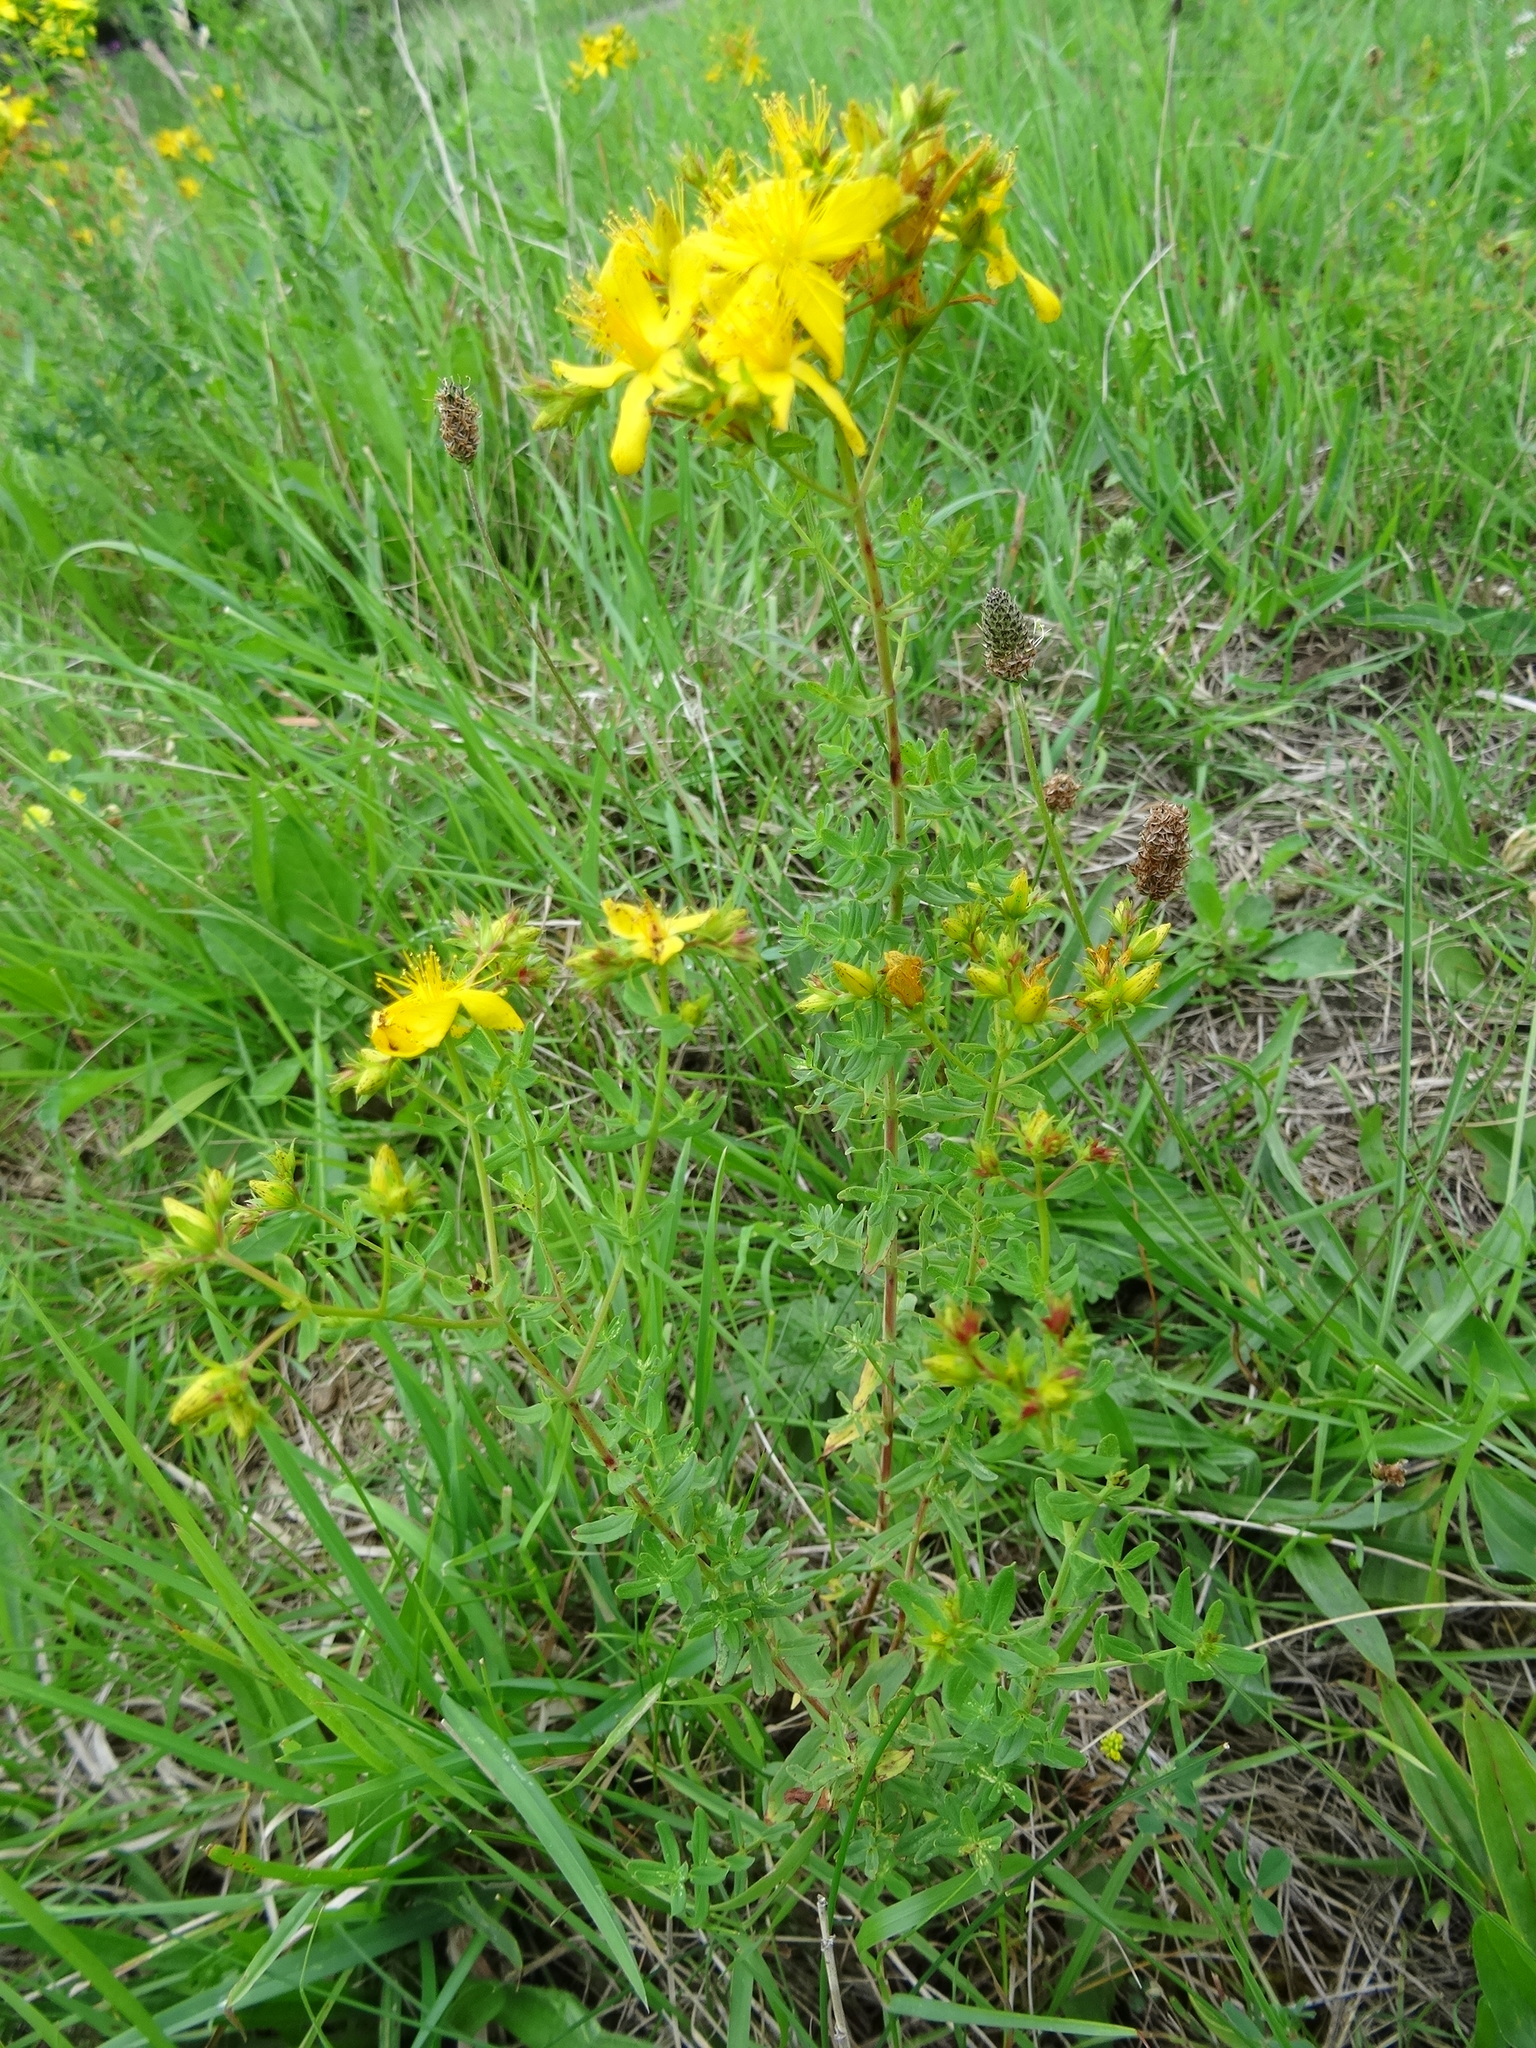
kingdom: Plantae
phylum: Tracheophyta
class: Magnoliopsida
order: Malpighiales
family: Hypericaceae
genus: Hypericum
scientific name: Hypericum perforatum
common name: Common st. johnswort
